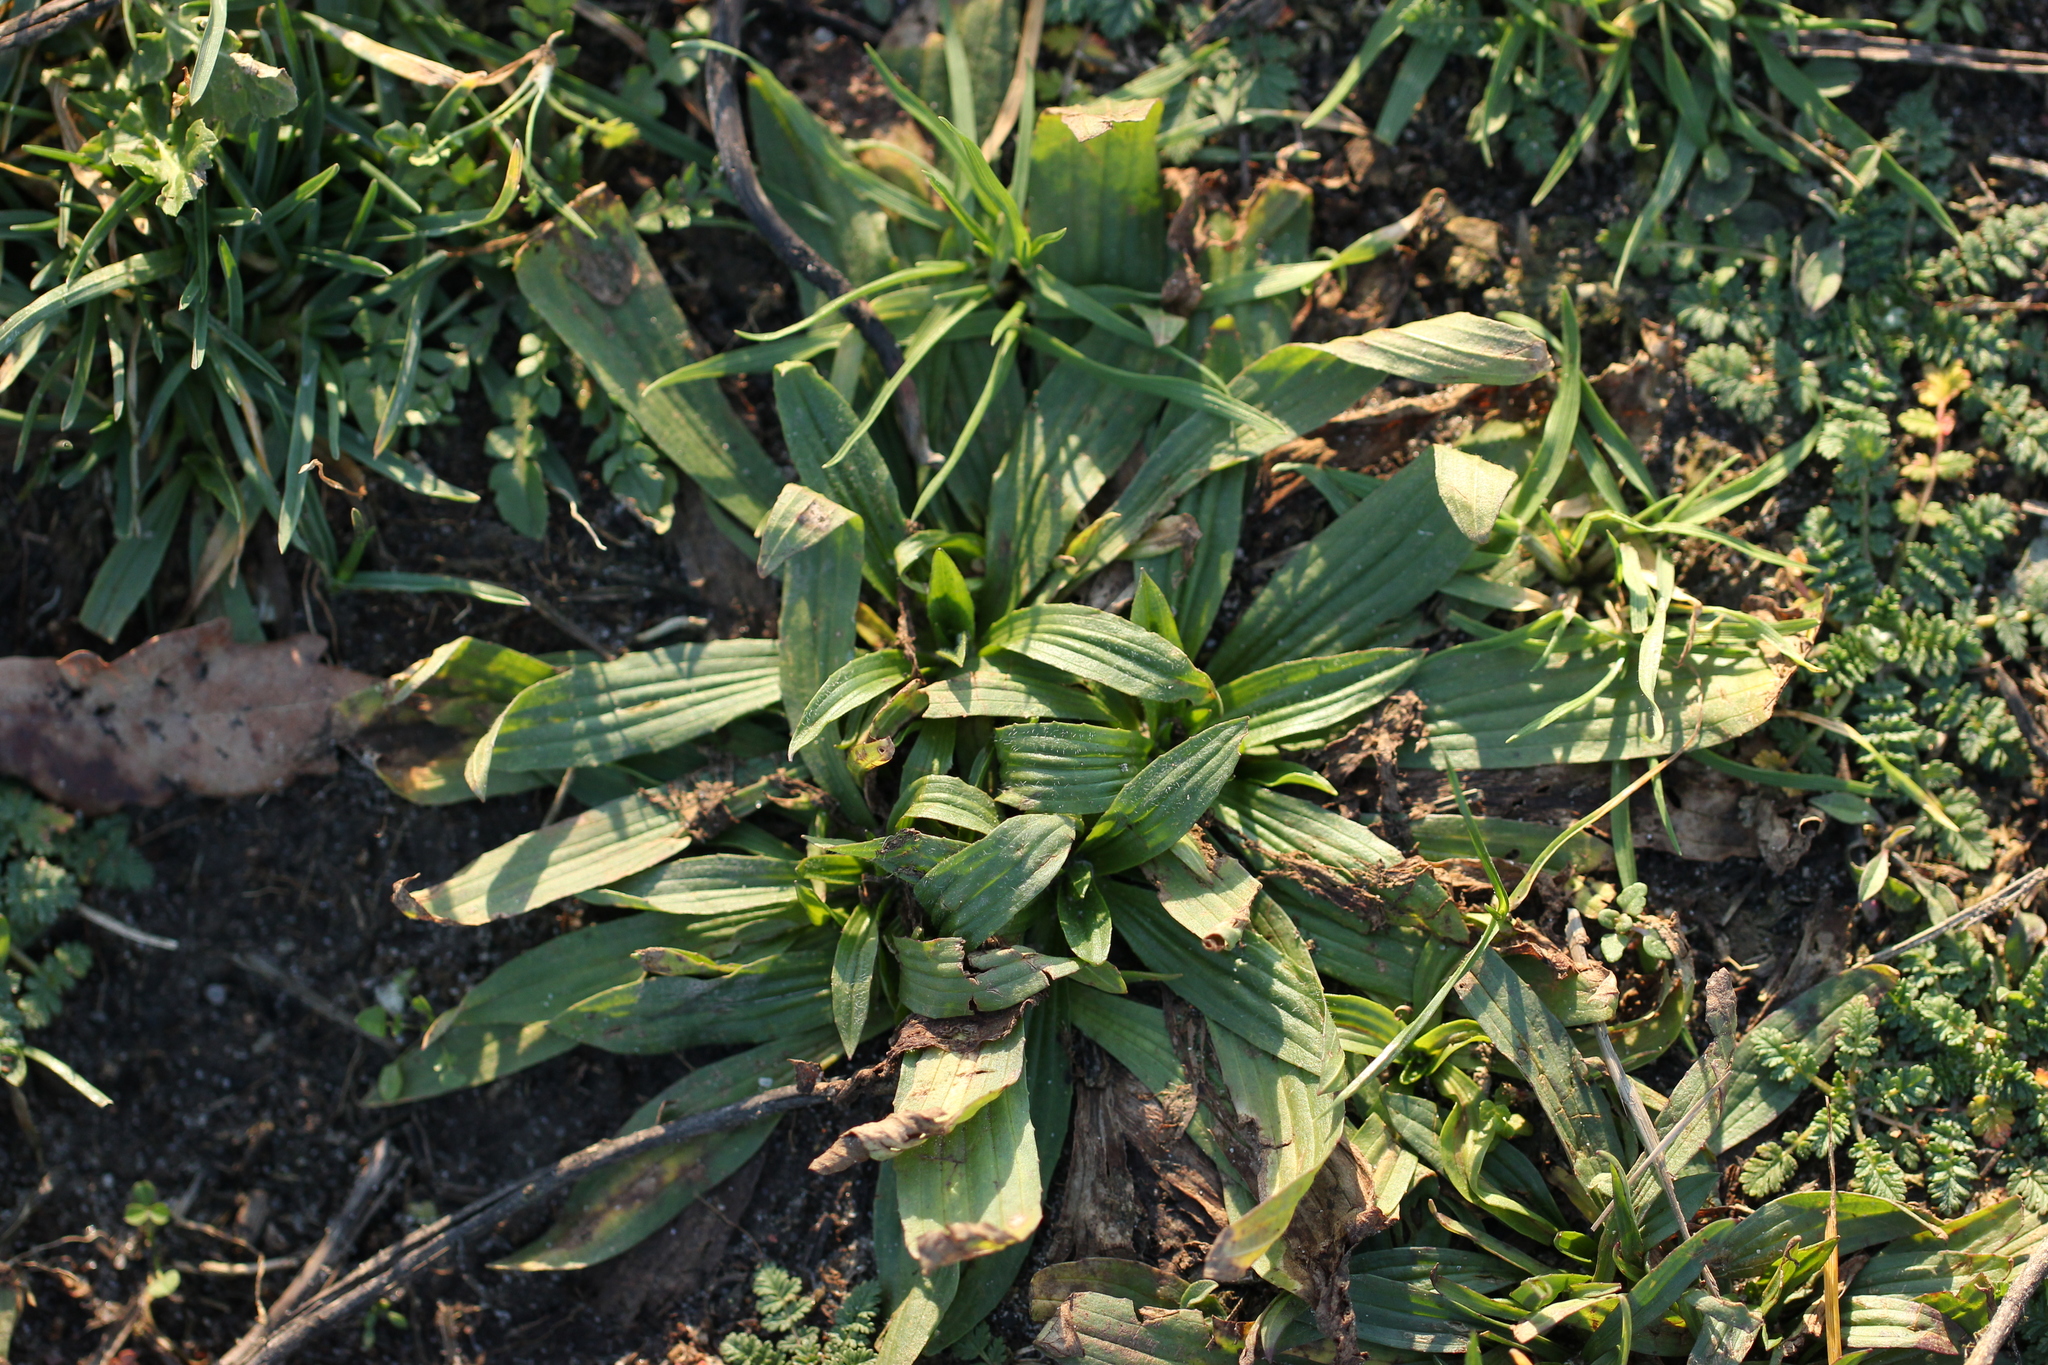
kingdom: Plantae
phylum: Tracheophyta
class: Magnoliopsida
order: Lamiales
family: Plantaginaceae
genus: Plantago
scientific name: Plantago lanceolata
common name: Ribwort plantain
